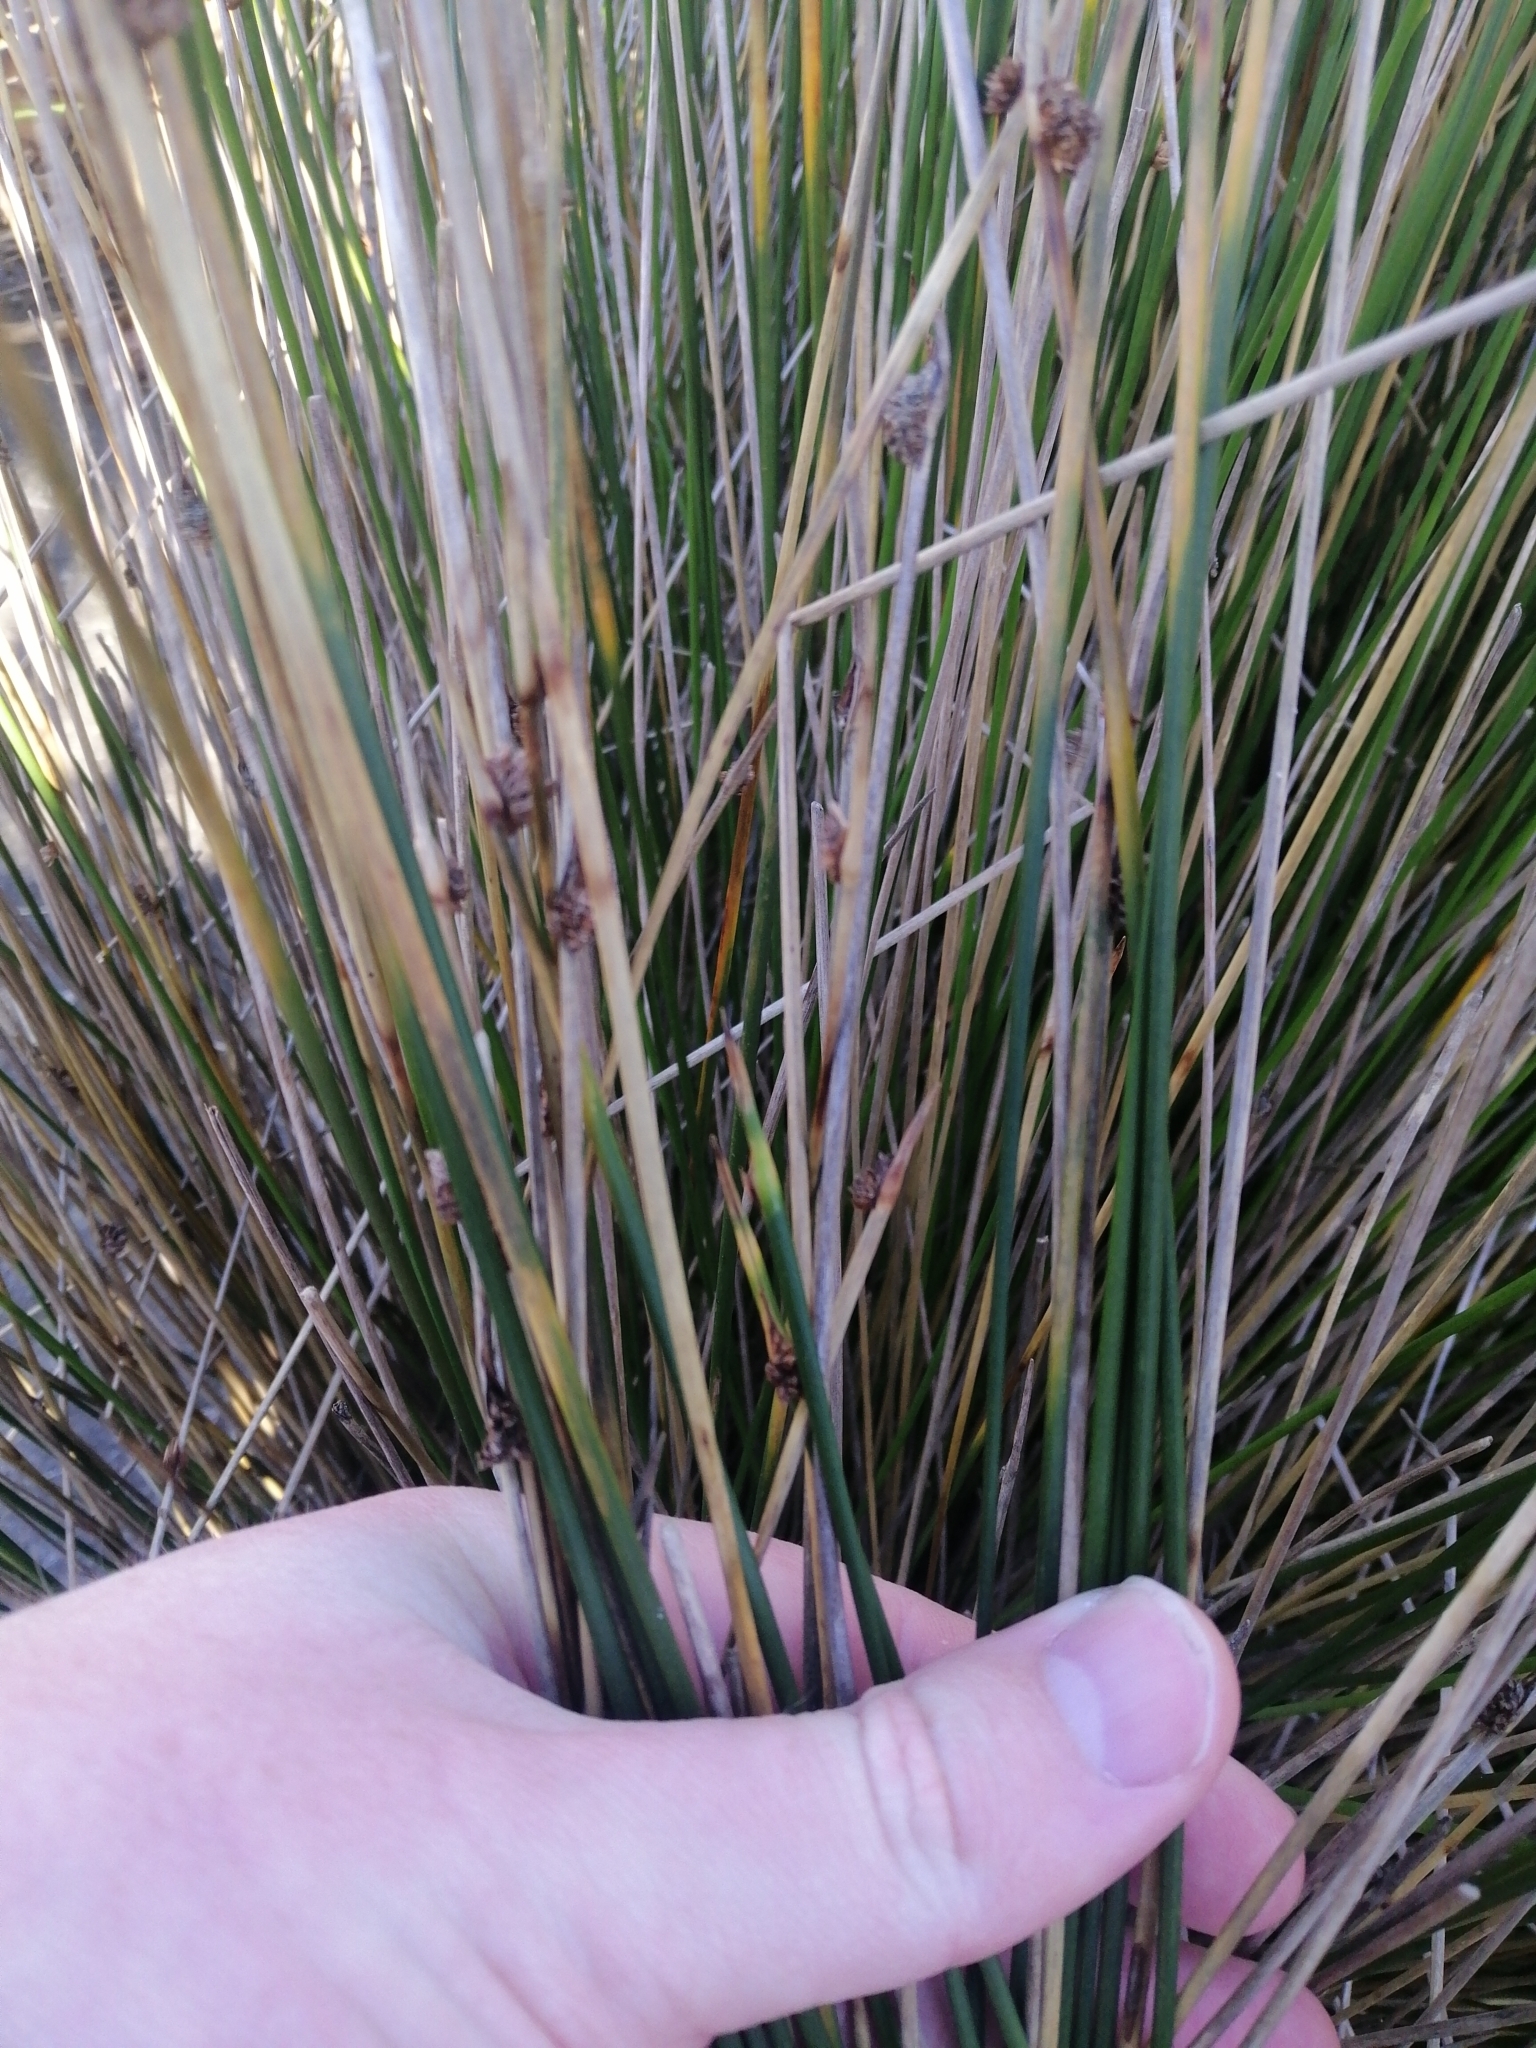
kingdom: Plantae
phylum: Tracheophyta
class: Liliopsida
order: Poales
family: Cyperaceae
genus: Ficinia
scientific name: Ficinia nodosa
